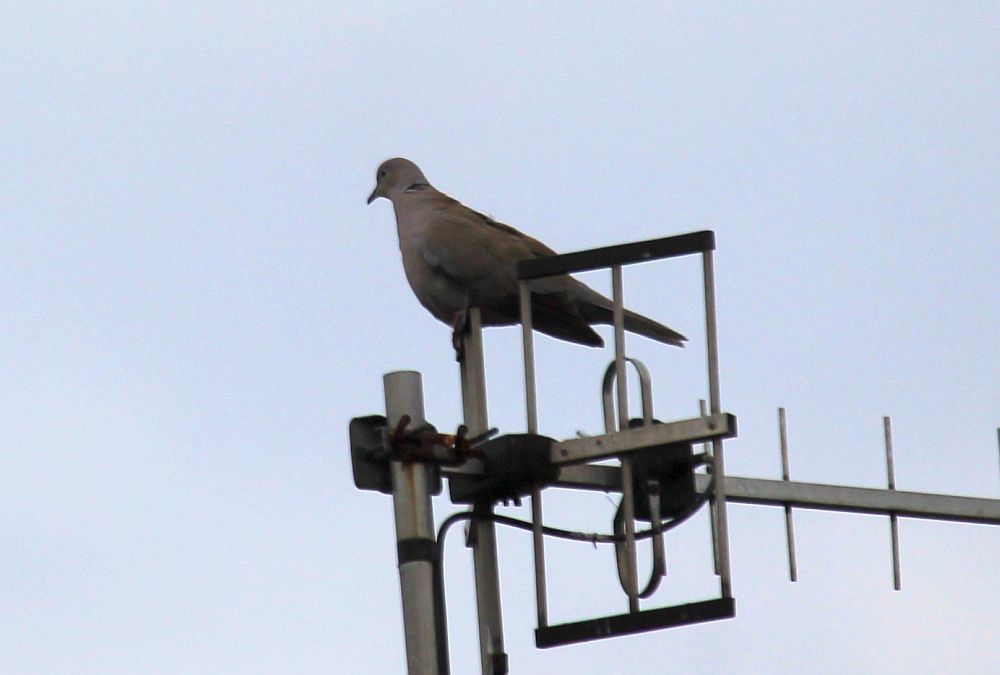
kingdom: Animalia
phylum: Chordata
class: Aves
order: Columbiformes
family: Columbidae
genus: Streptopelia
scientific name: Streptopelia decaocto
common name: Eurasian collared dove
